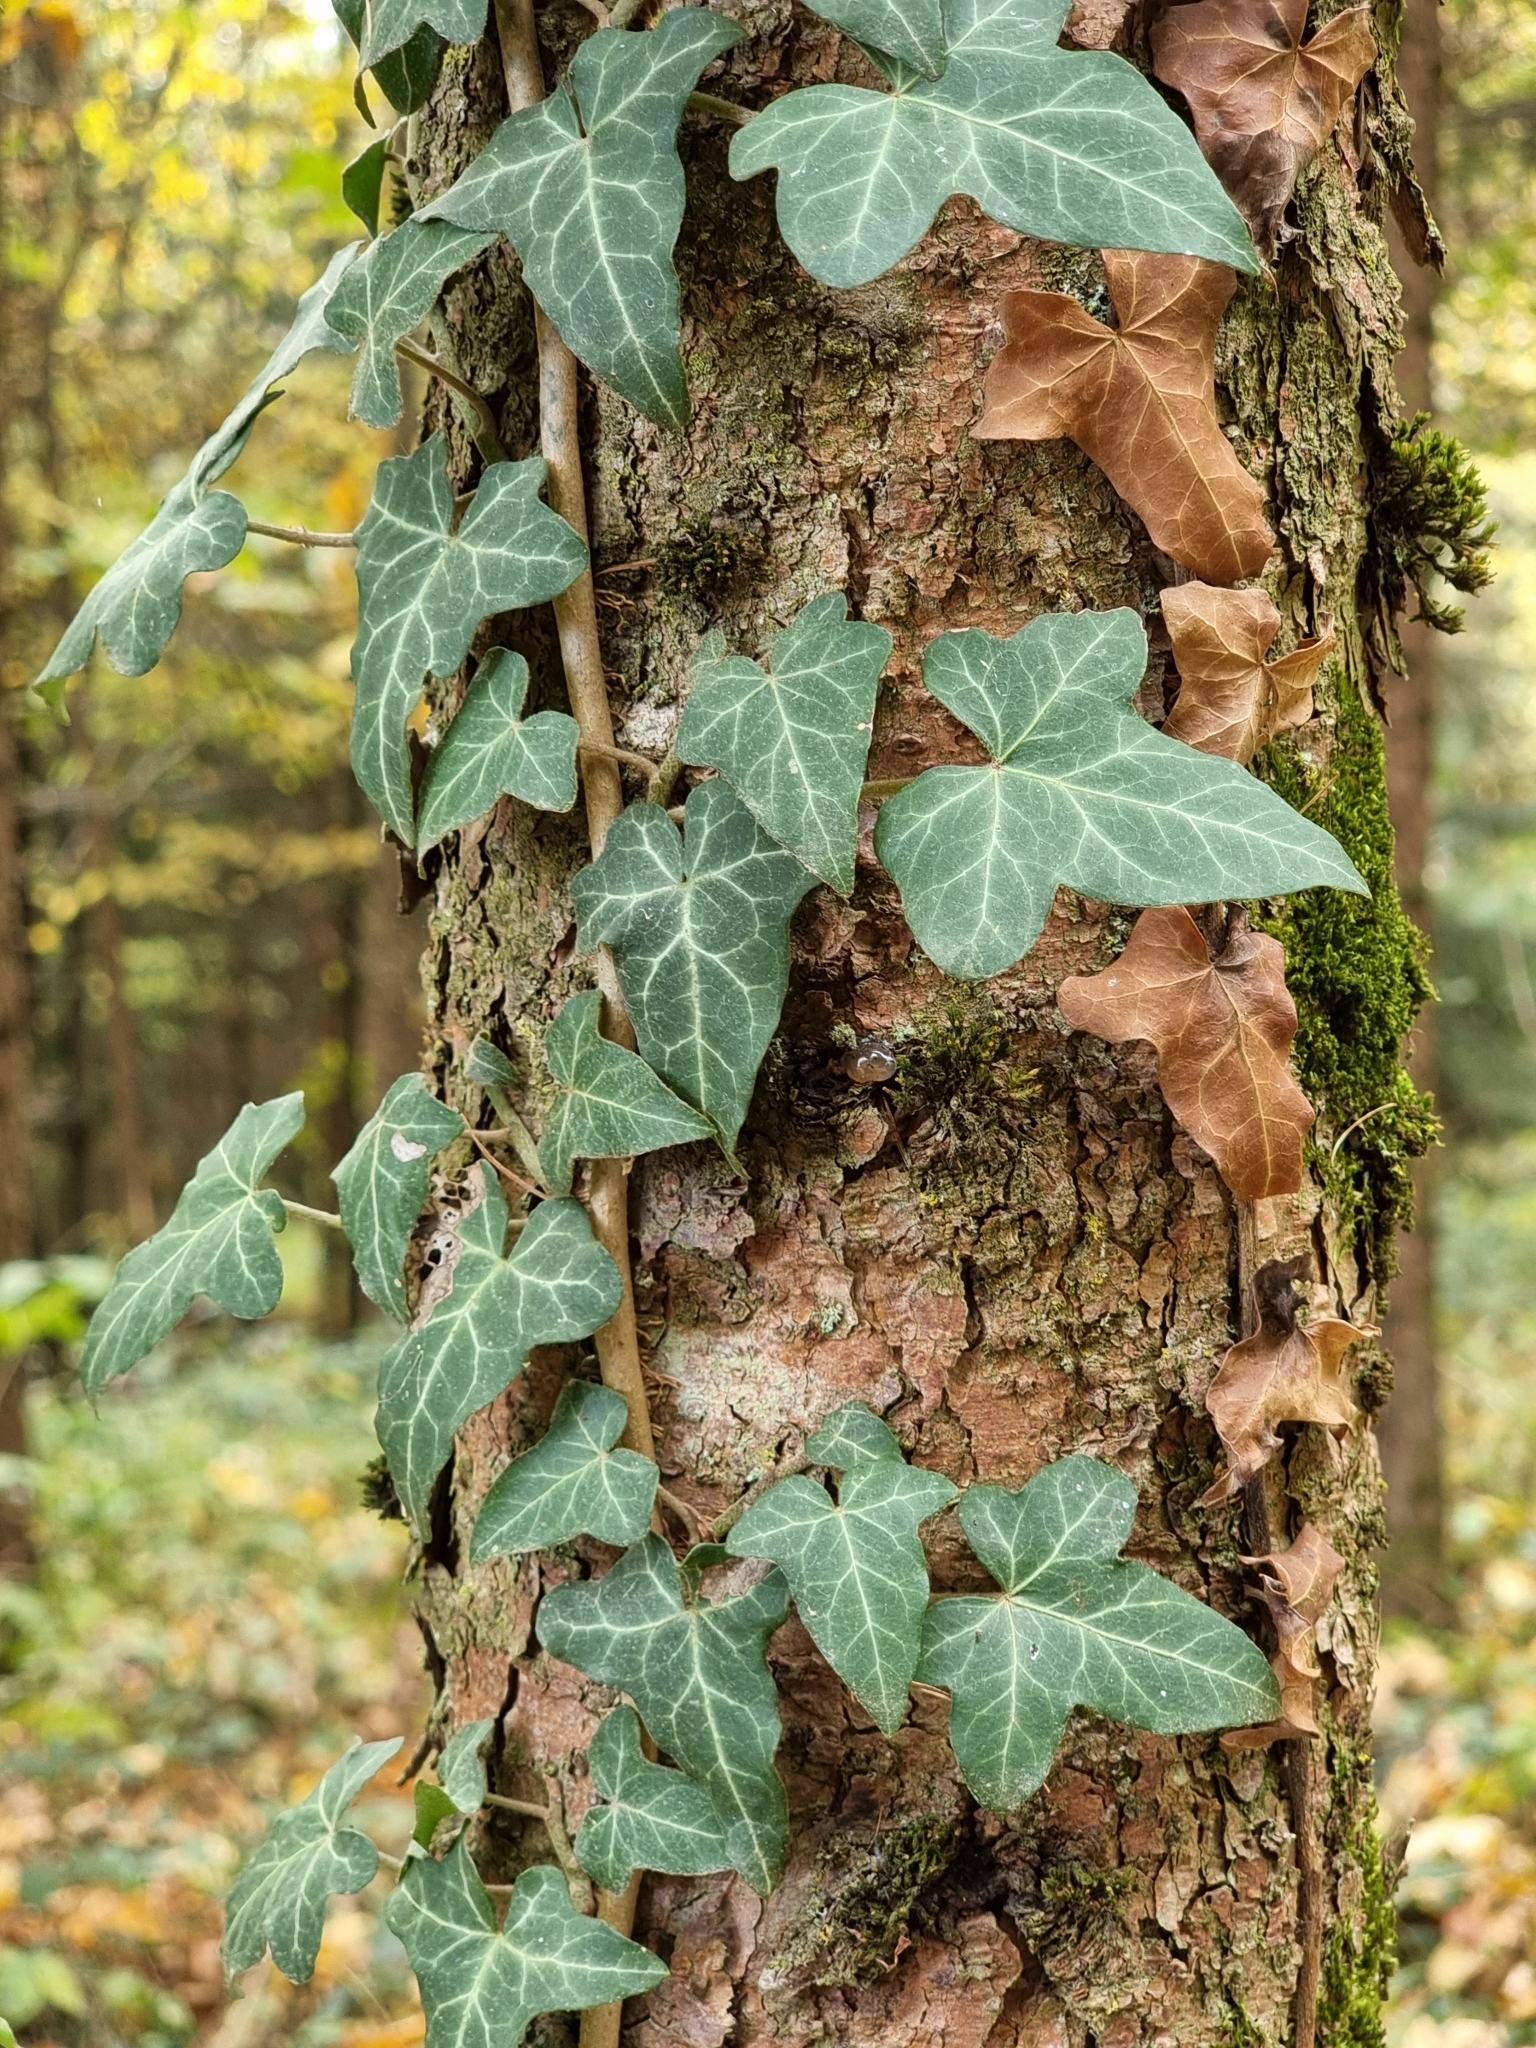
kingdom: Plantae
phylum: Tracheophyta
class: Magnoliopsida
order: Apiales
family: Araliaceae
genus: Hedera
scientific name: Hedera helix
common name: Ivy
